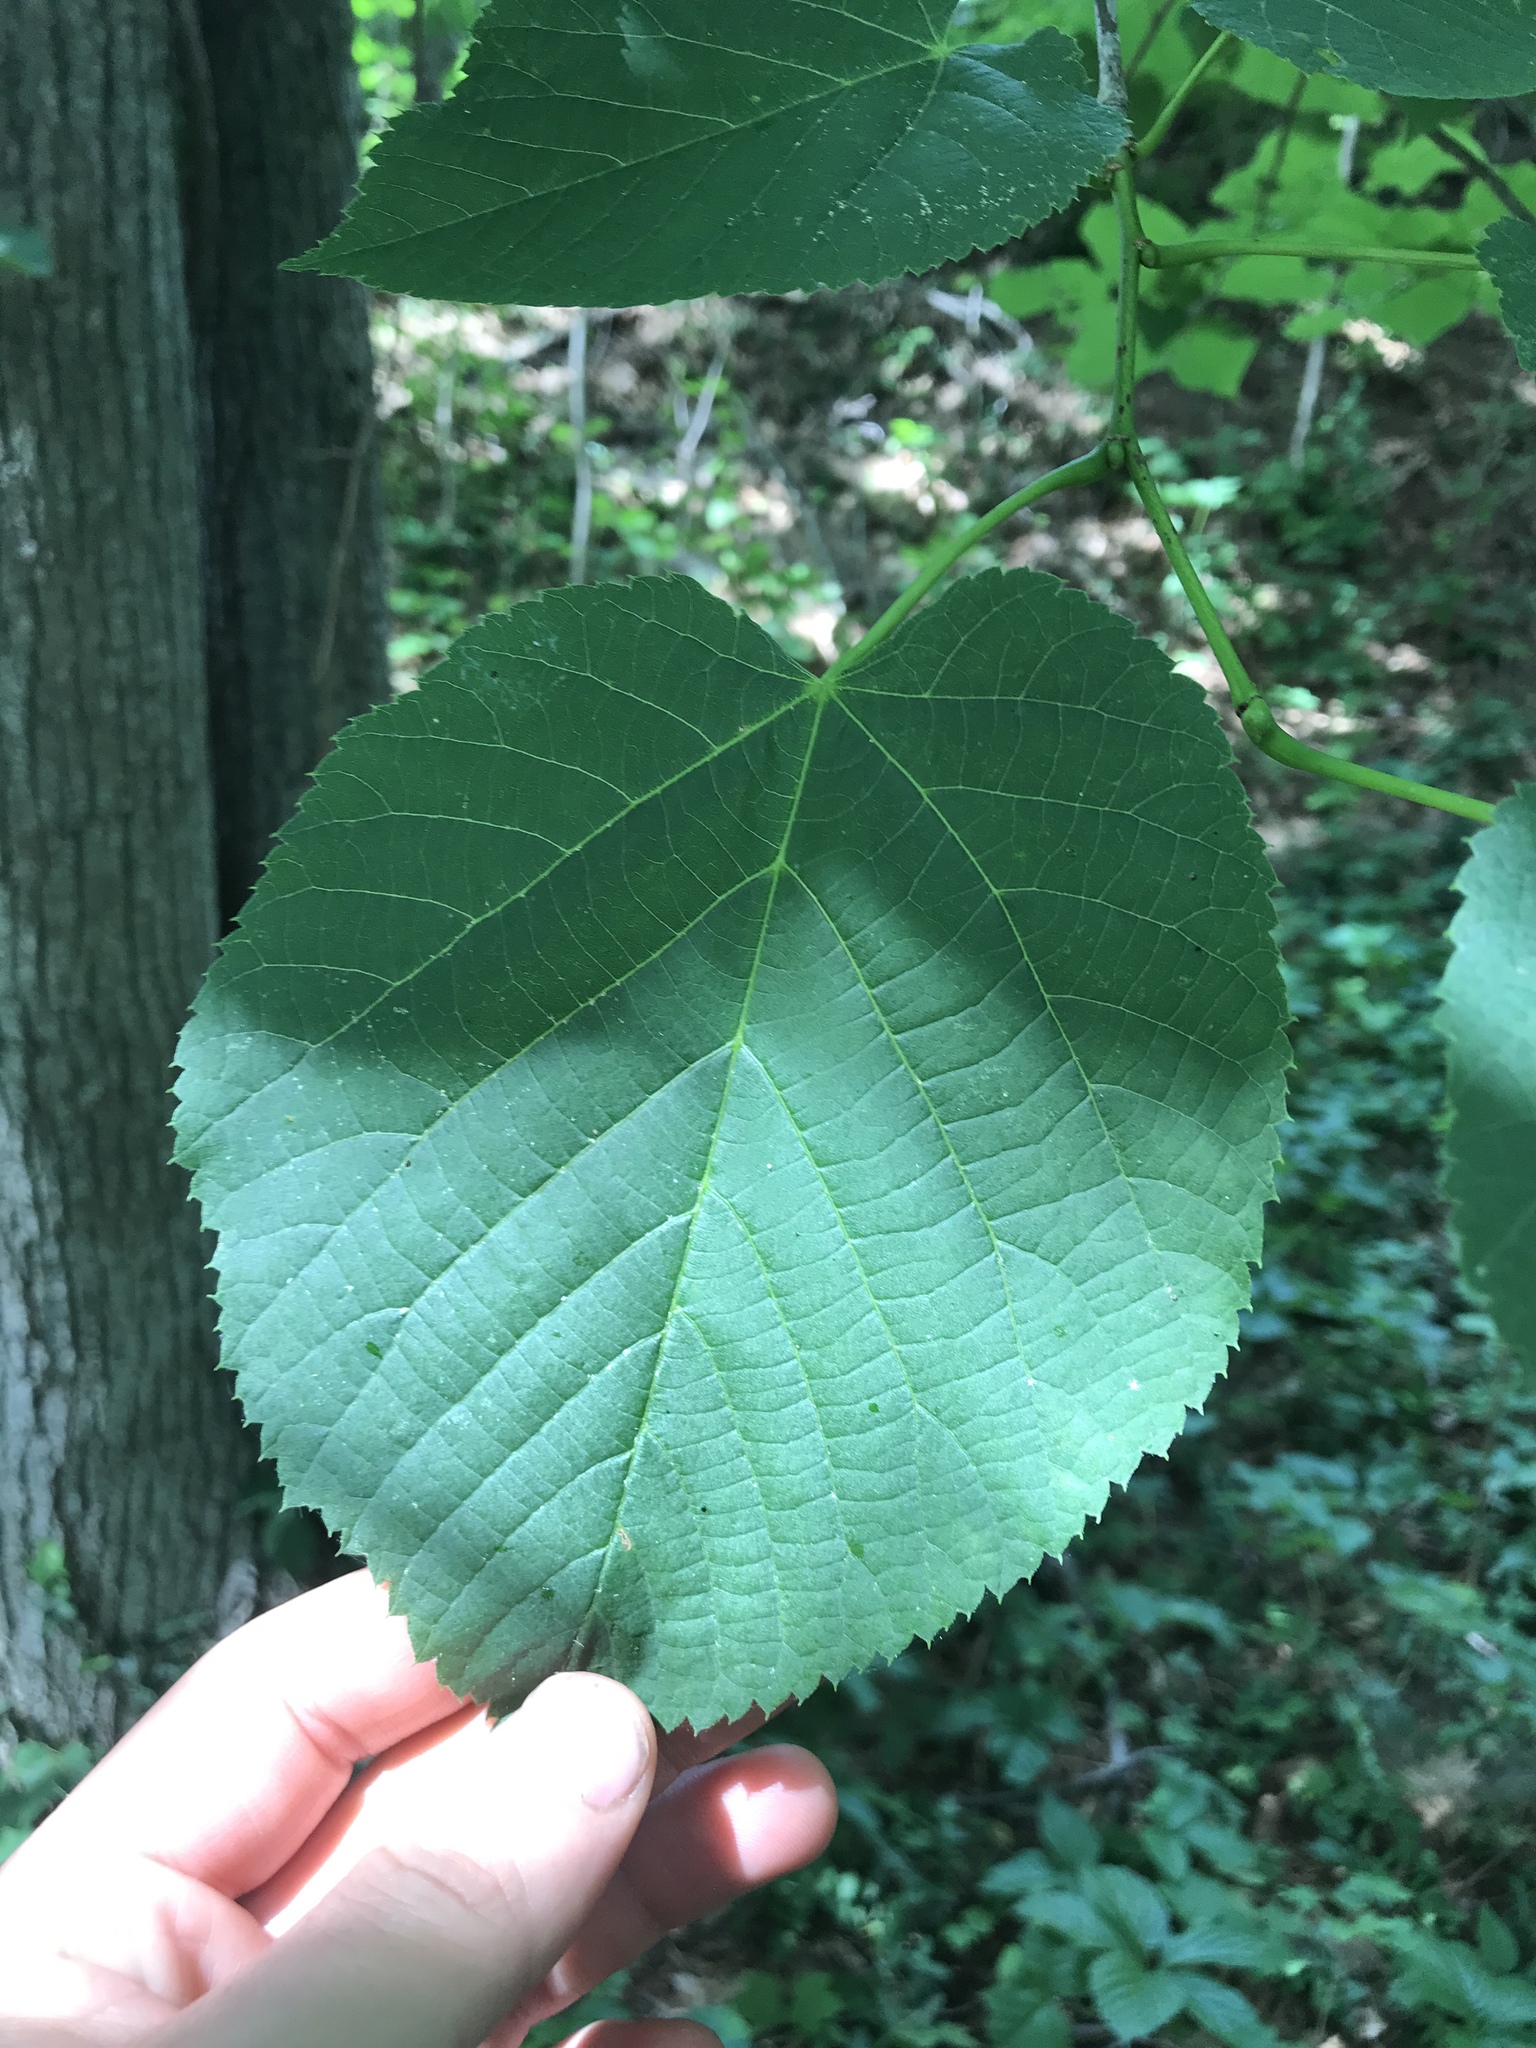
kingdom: Plantae
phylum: Tracheophyta
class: Magnoliopsida
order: Malvales
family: Malvaceae
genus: Tilia
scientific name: Tilia americana
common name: Basswood
